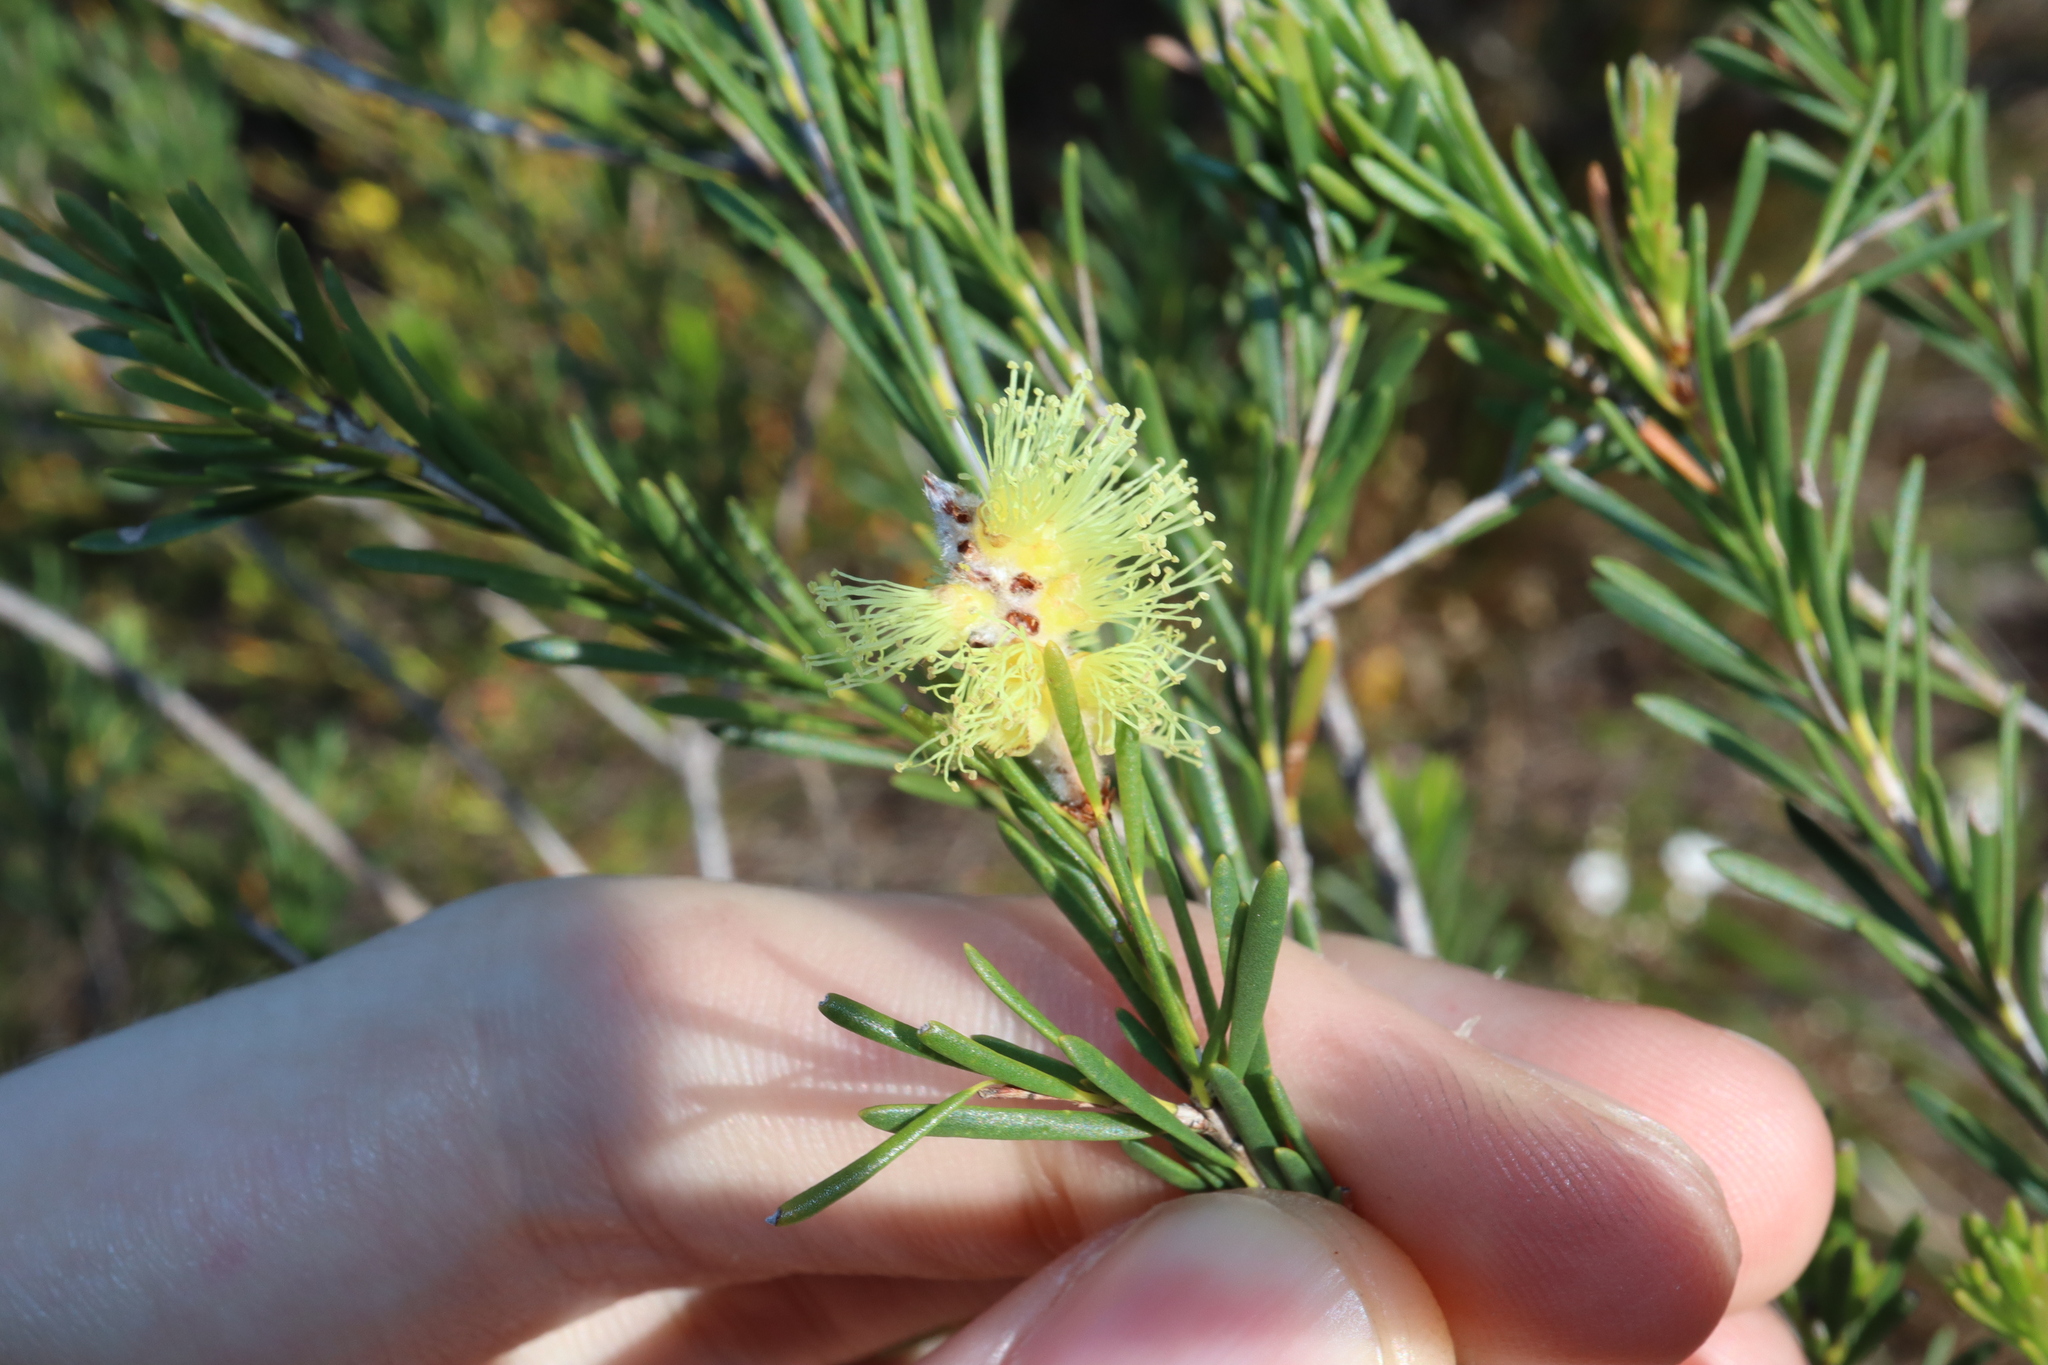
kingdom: Plantae
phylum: Tracheophyta
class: Magnoliopsida
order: Myrtales
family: Myrtaceae
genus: Melaleuca
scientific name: Melaleuca lutea
